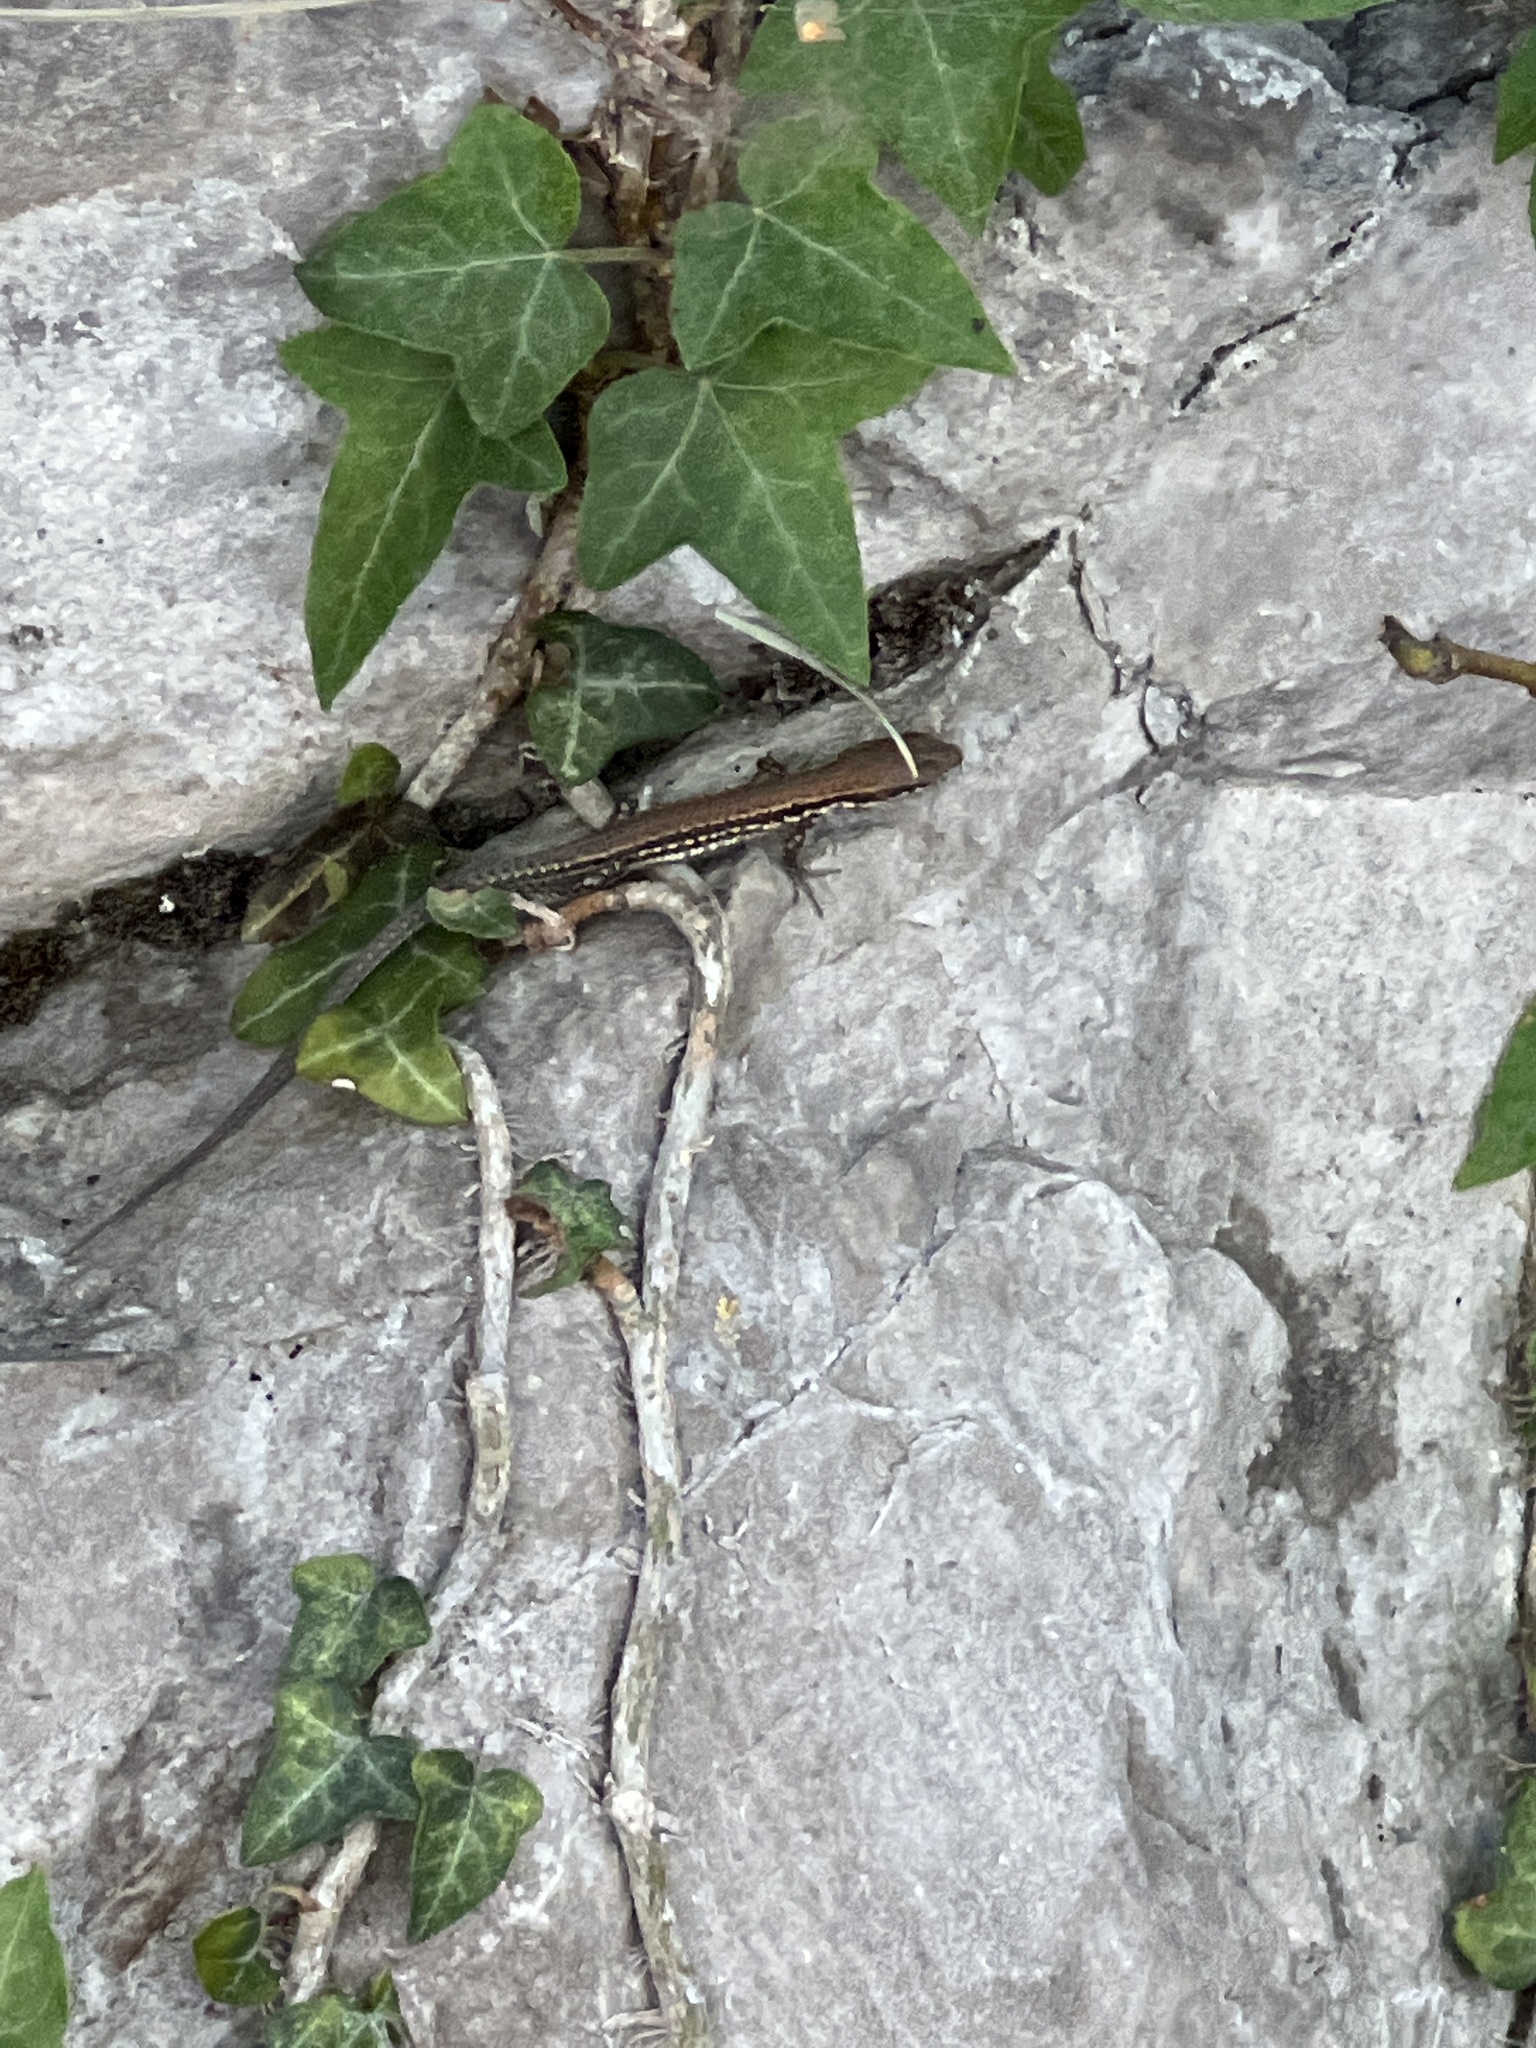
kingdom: Animalia
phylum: Chordata
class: Squamata
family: Lacertidae
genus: Podarcis
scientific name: Podarcis muralis
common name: Common wall lizard
